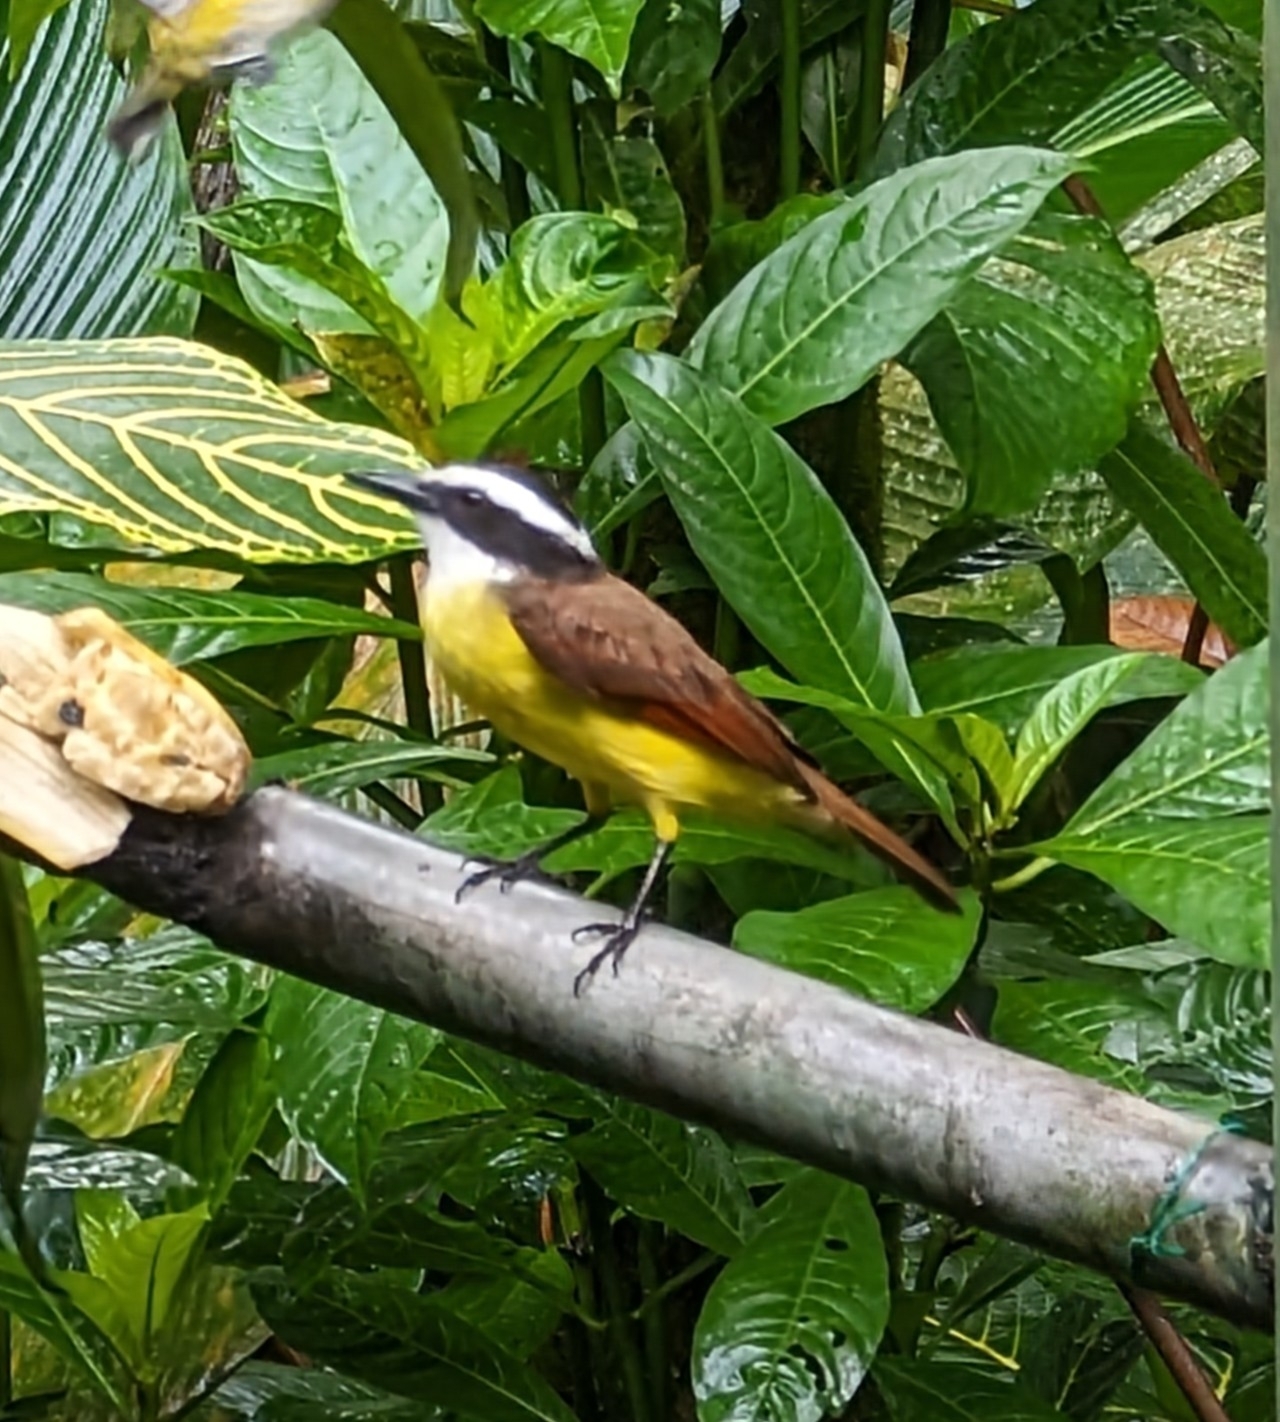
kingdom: Animalia
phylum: Chordata
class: Aves
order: Passeriformes
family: Tyrannidae
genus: Pitangus
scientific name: Pitangus sulphuratus
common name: Great kiskadee
